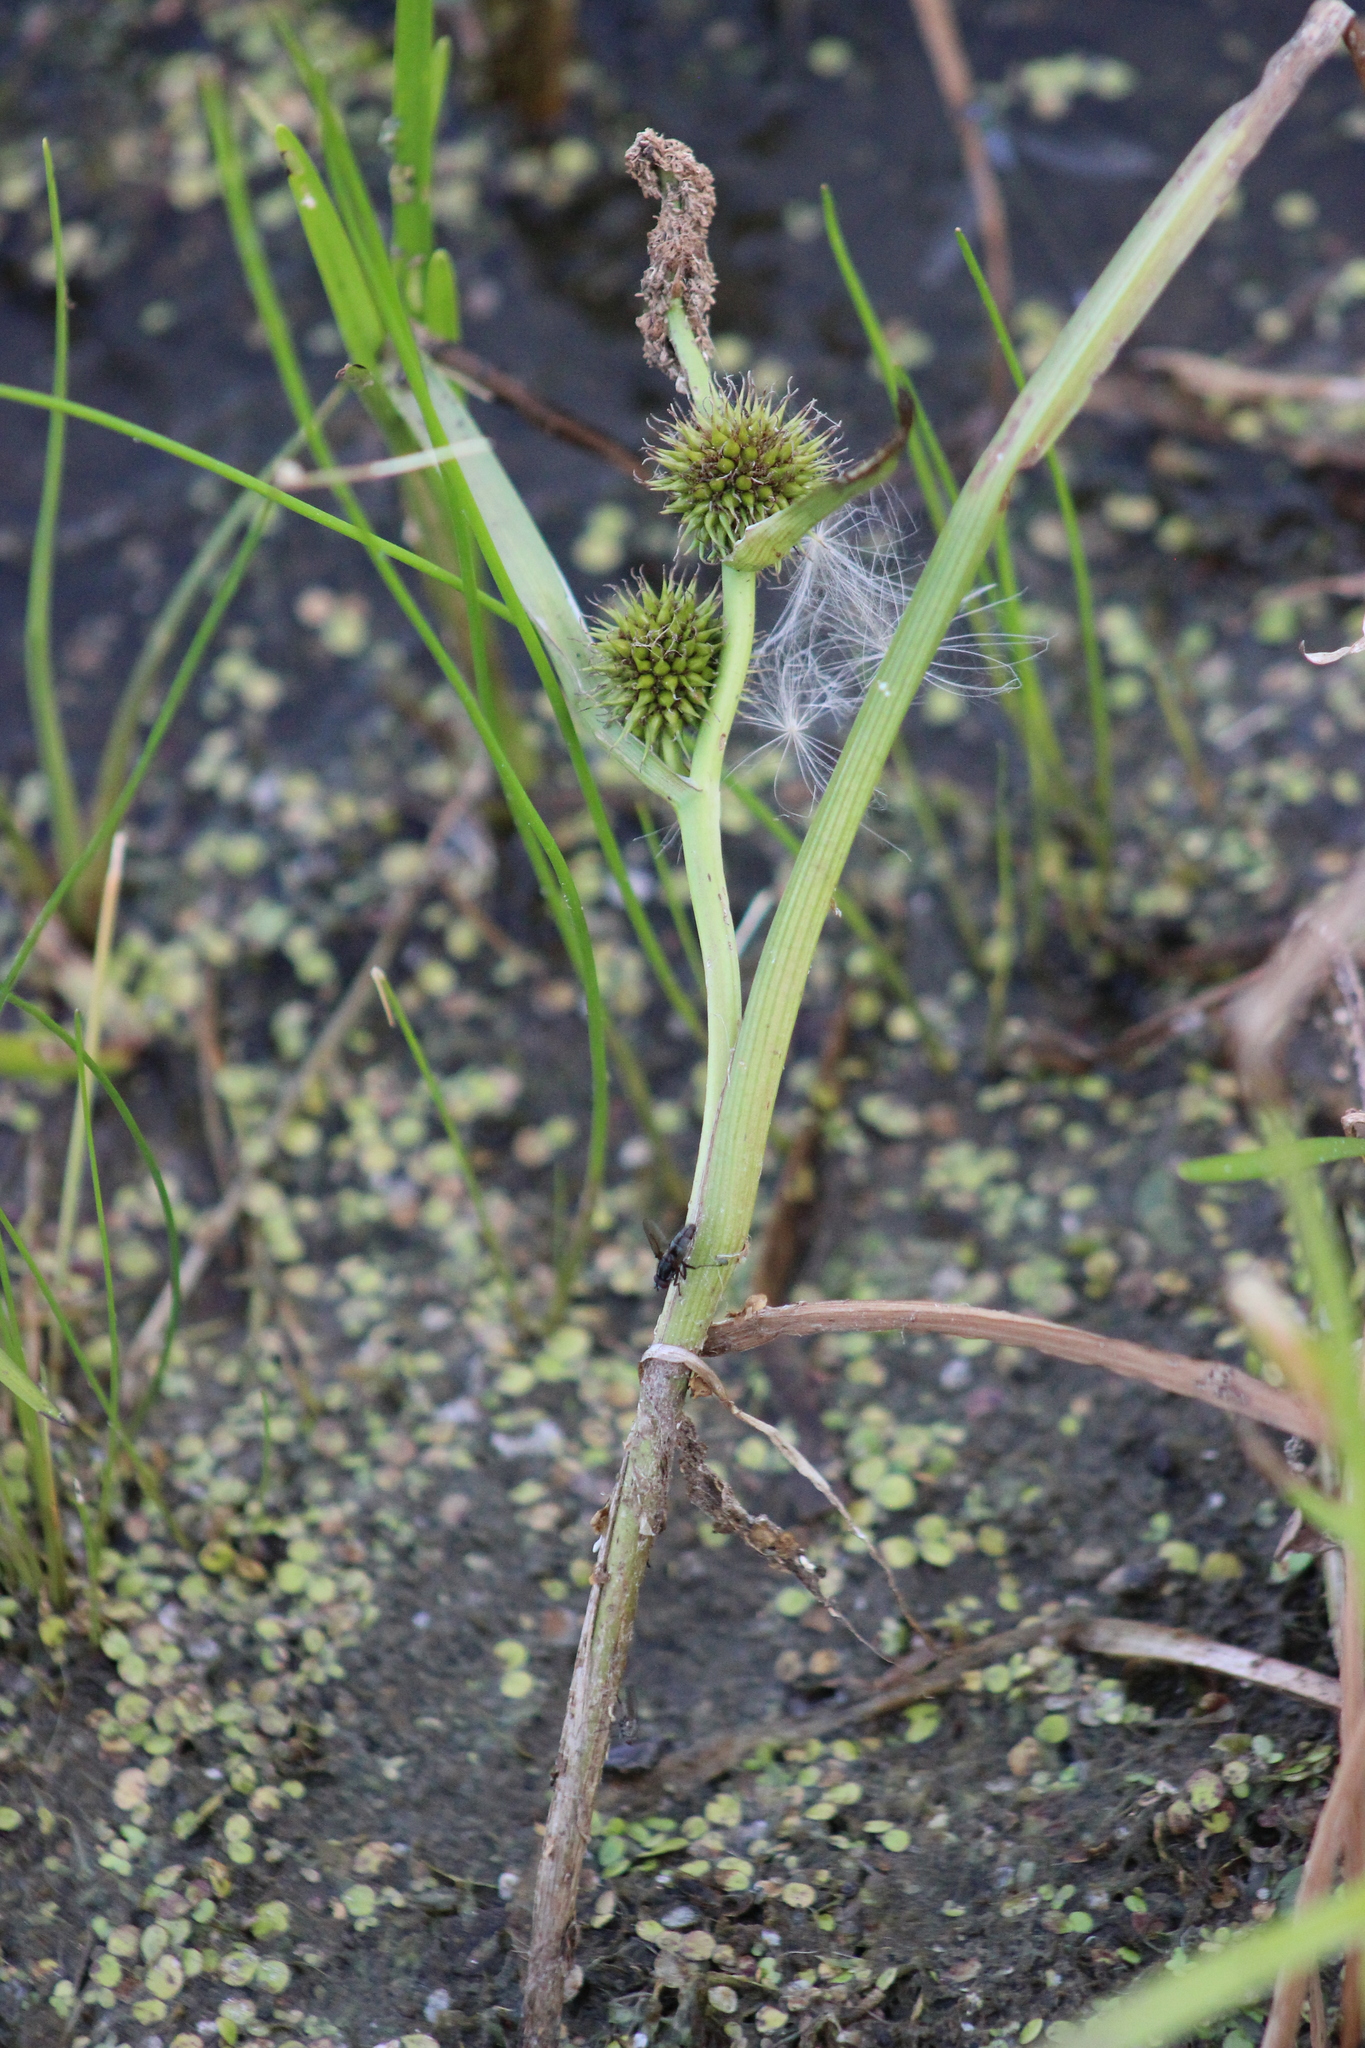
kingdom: Plantae
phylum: Tracheophyta
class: Liliopsida
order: Poales
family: Typhaceae
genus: Sparganium
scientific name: Sparganium emersum
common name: Unbranched bur-reed
